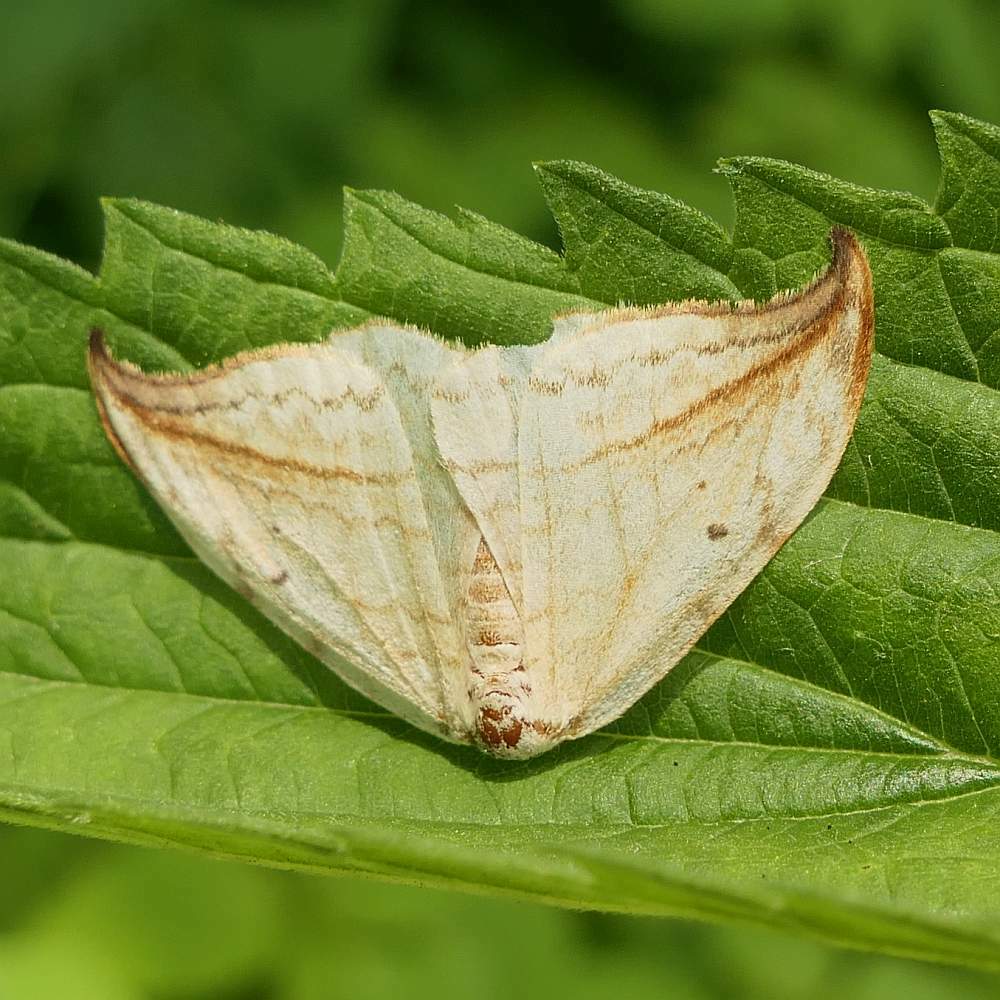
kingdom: Animalia
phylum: Arthropoda
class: Insecta
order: Lepidoptera
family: Drepanidae
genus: Drepana
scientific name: Drepana arcuata
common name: Arched hooktip moth
